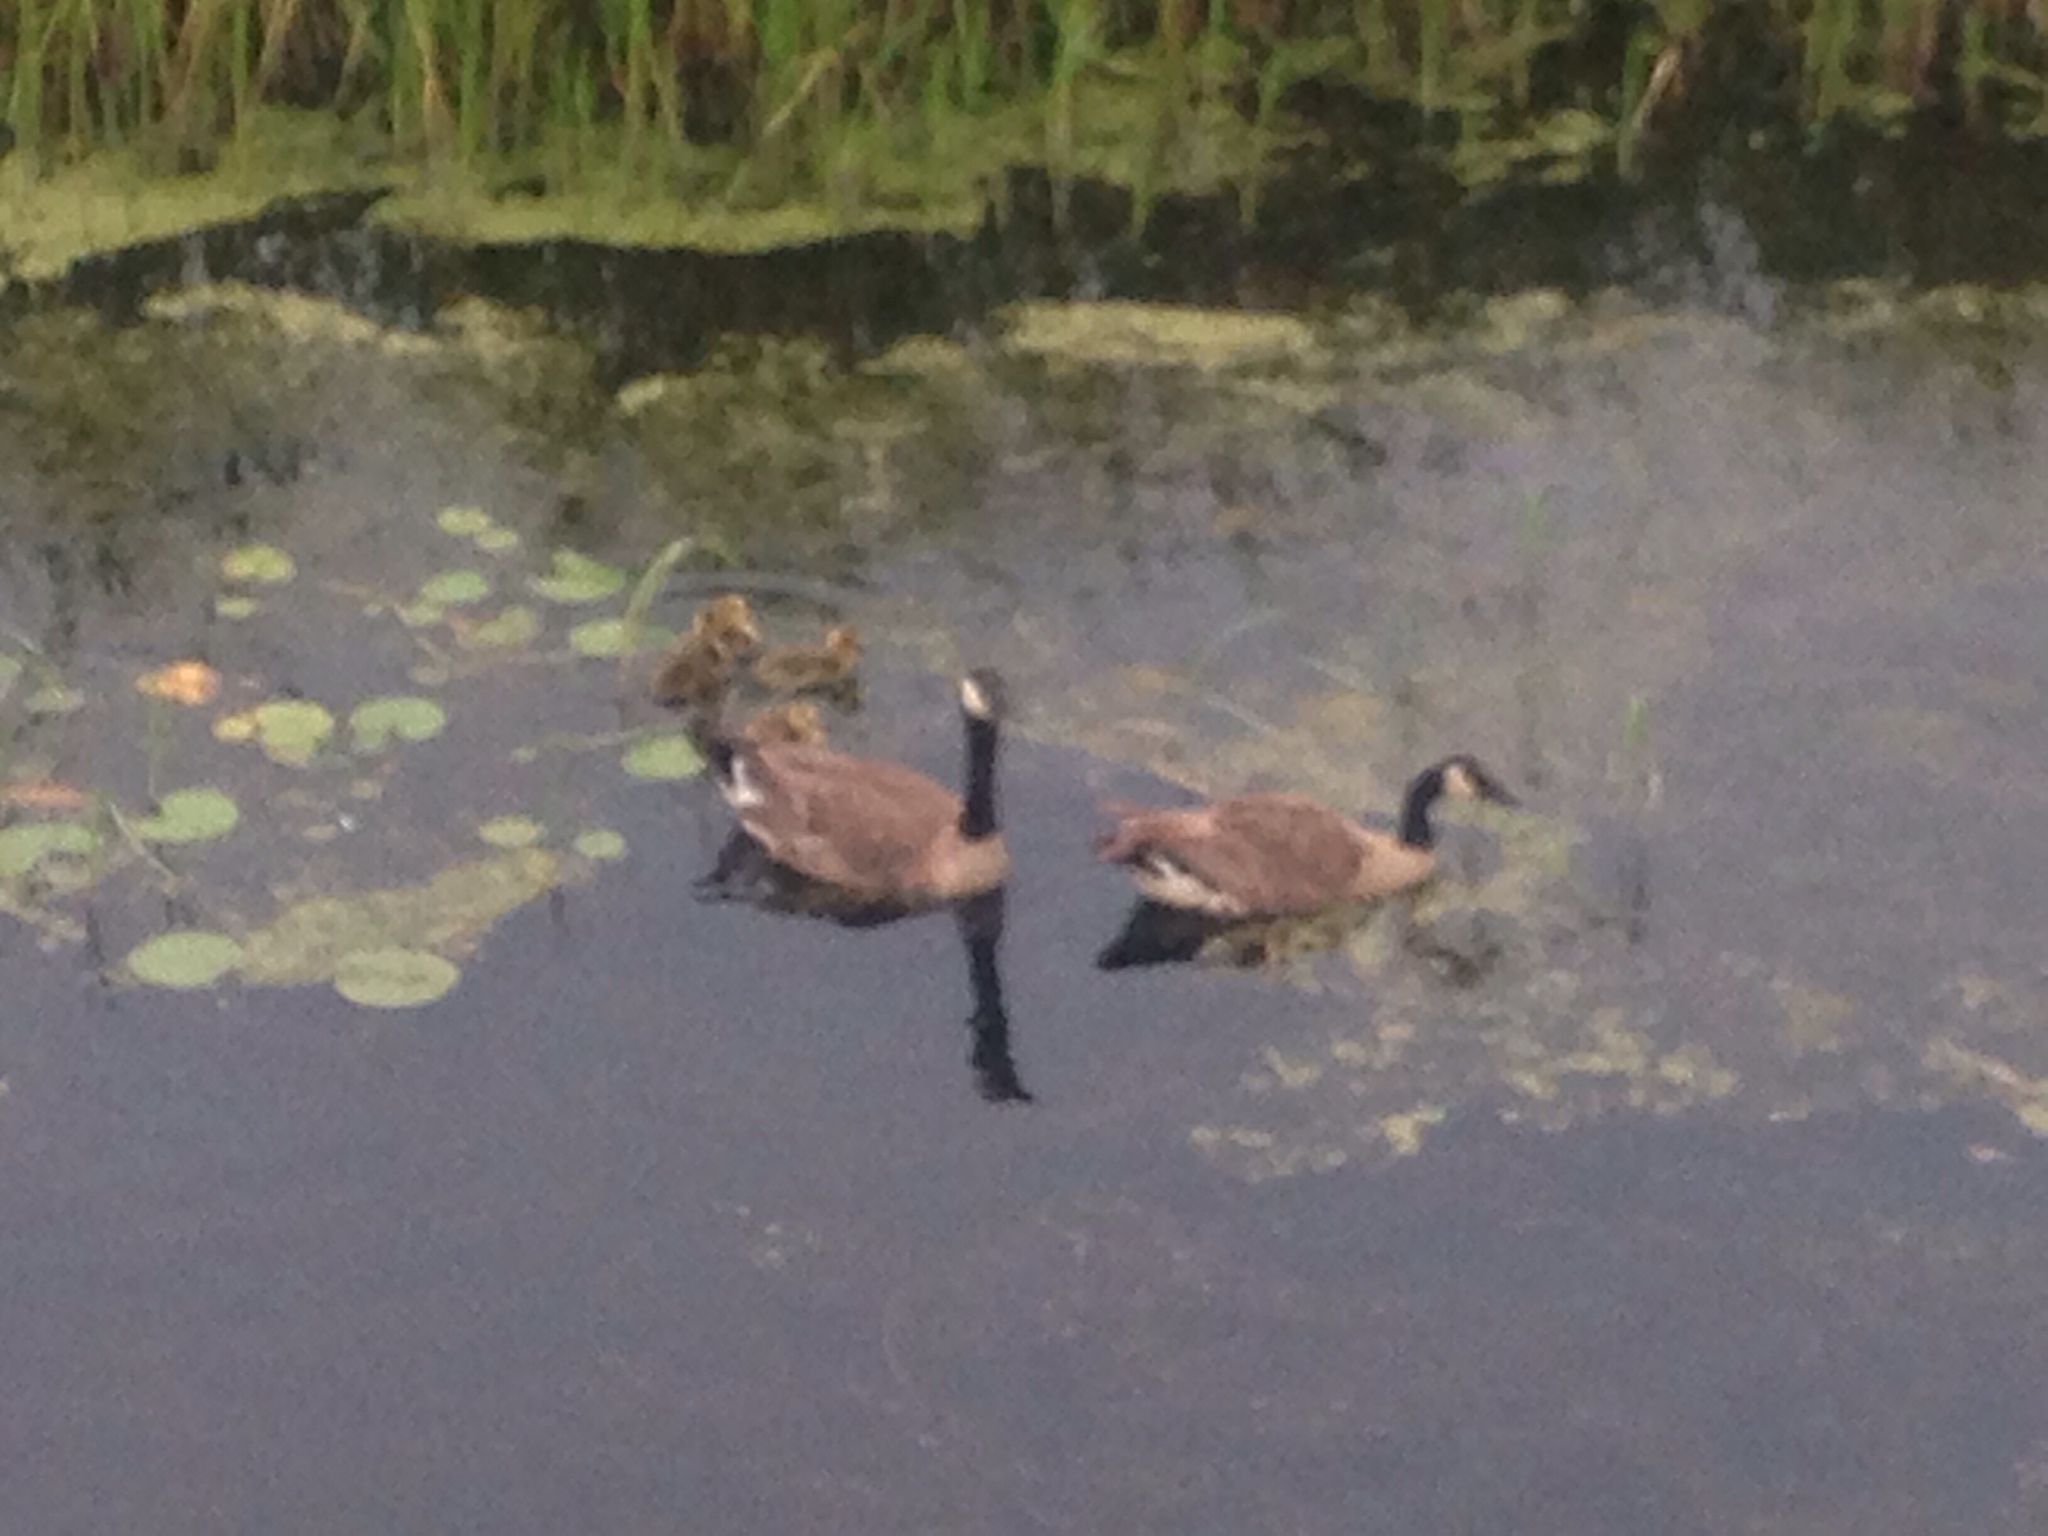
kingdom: Animalia
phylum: Chordata
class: Aves
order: Anseriformes
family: Anatidae
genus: Branta
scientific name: Branta canadensis
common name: Canada goose
